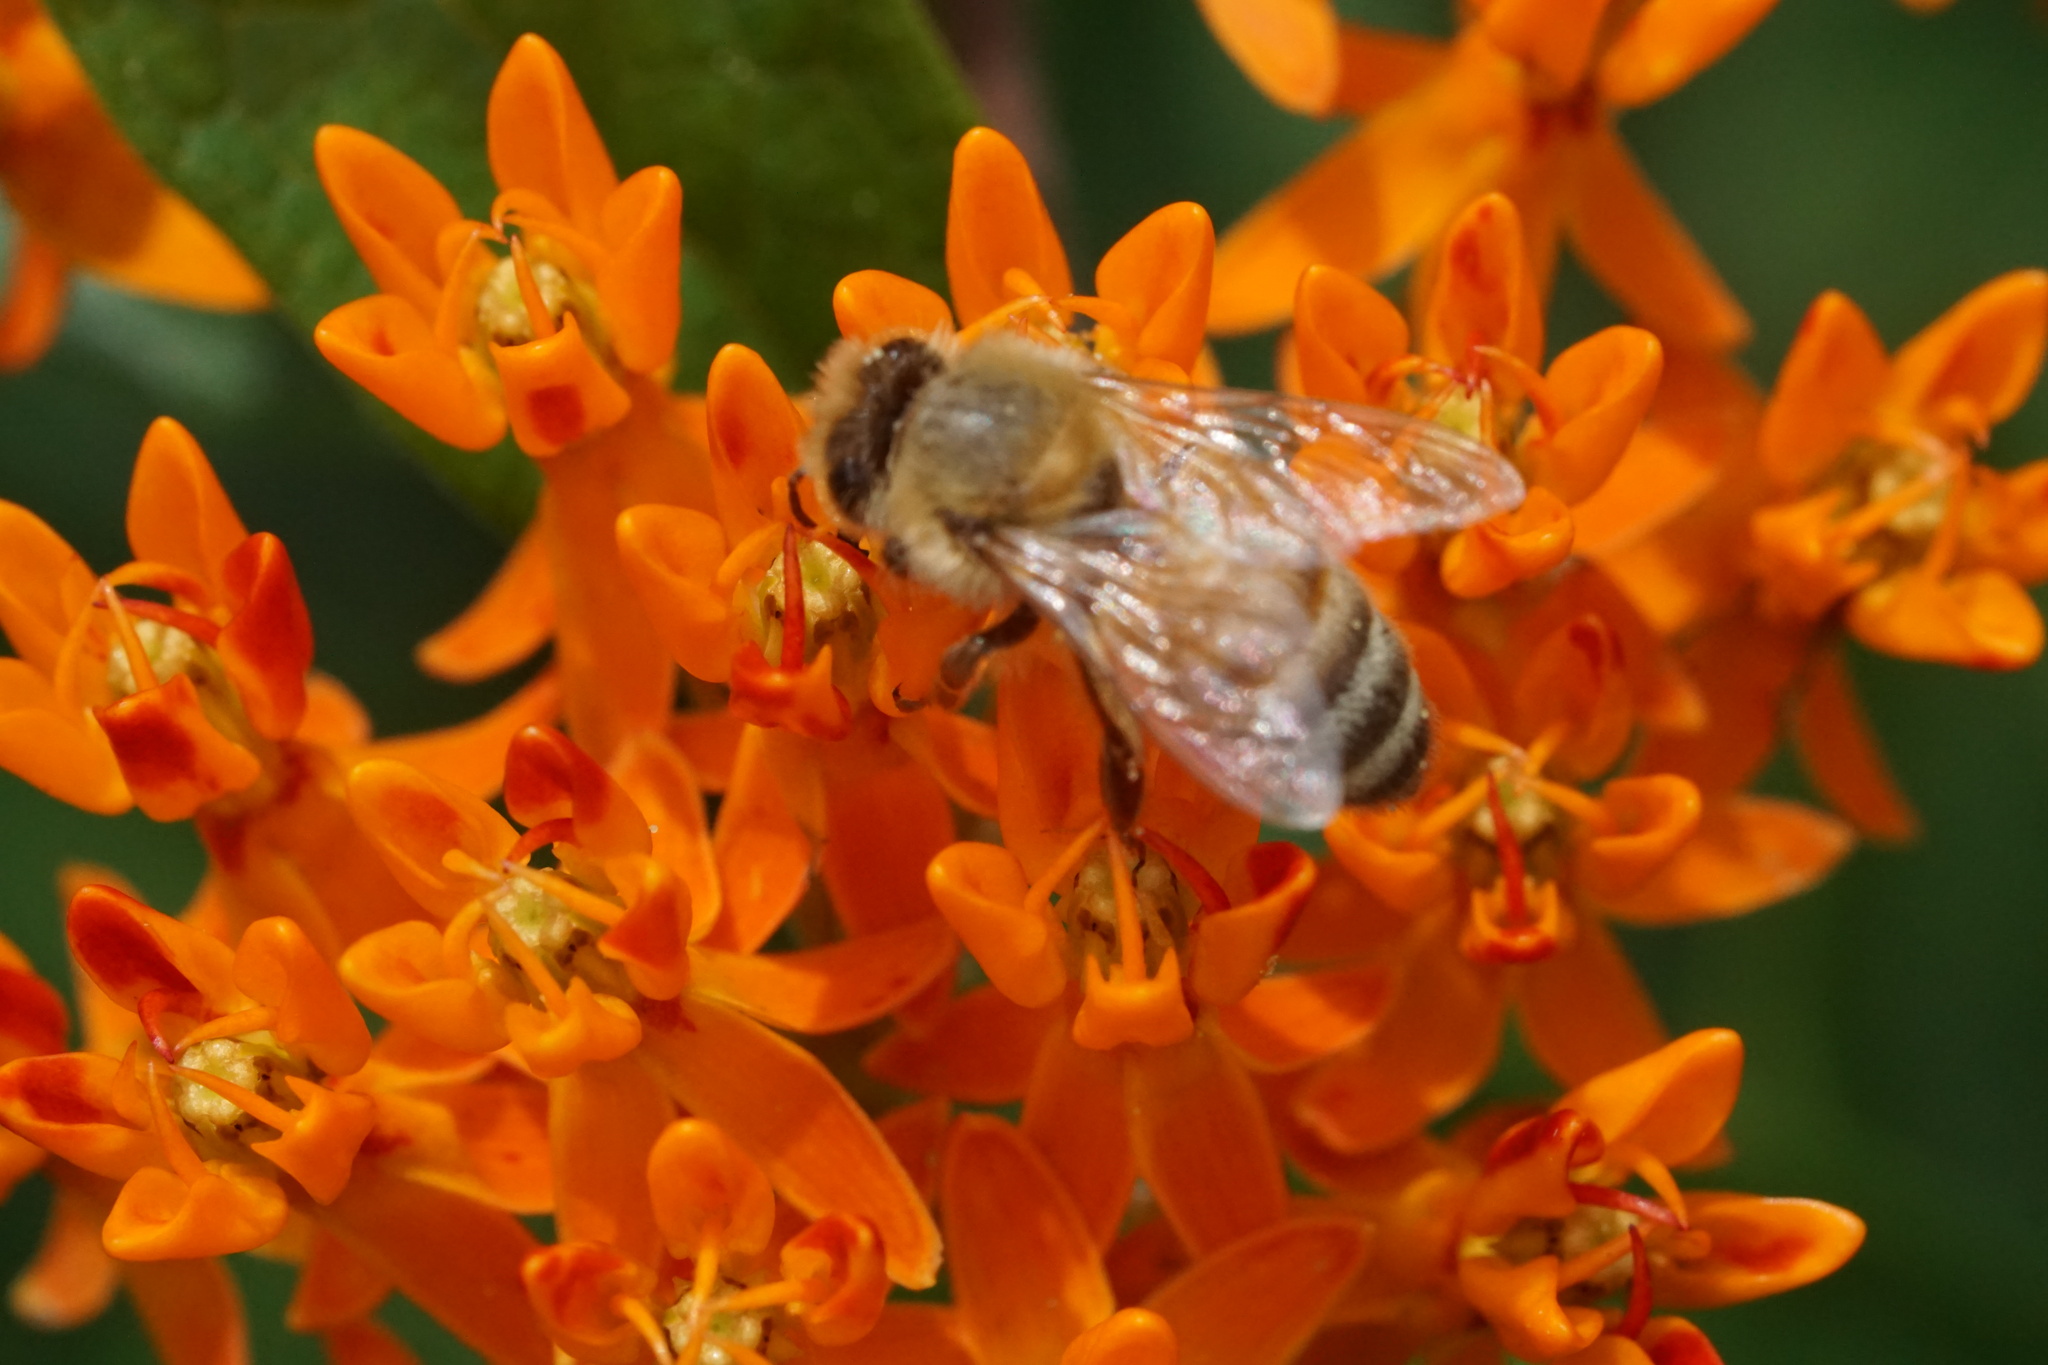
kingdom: Animalia
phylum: Arthropoda
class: Insecta
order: Hymenoptera
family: Apidae
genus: Apis
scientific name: Apis mellifera
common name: Honey bee
